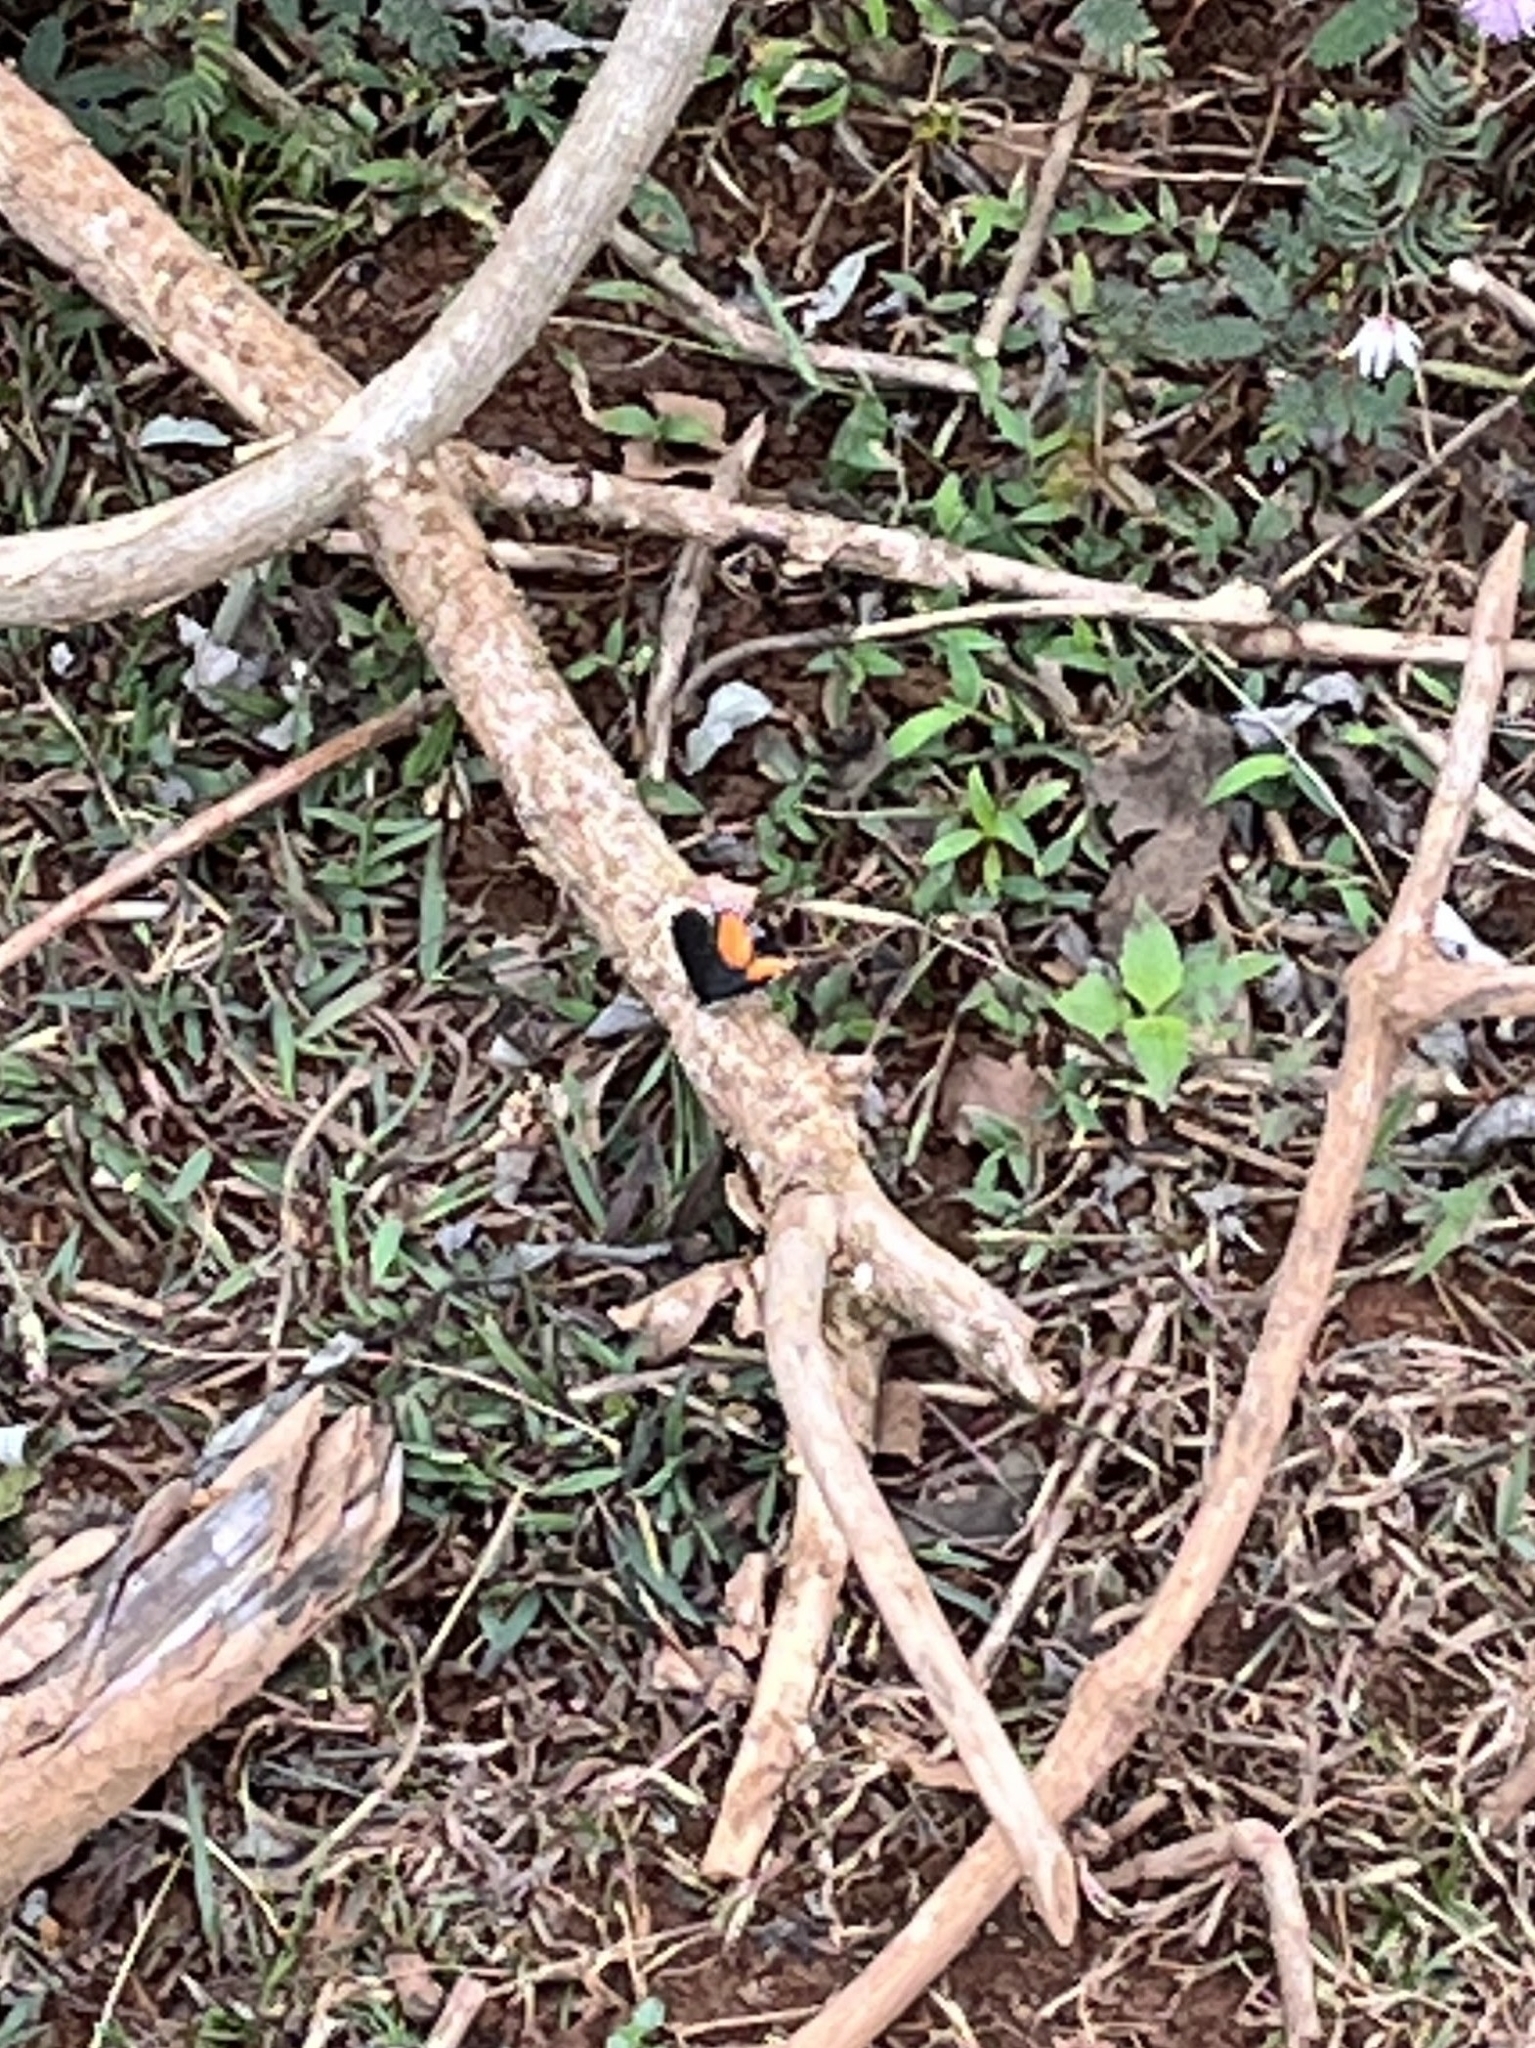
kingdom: Animalia
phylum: Arthropoda
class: Insecta
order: Lepidoptera
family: Lycaenidae
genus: Talicada
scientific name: Talicada nyseus
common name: Red pierrot
